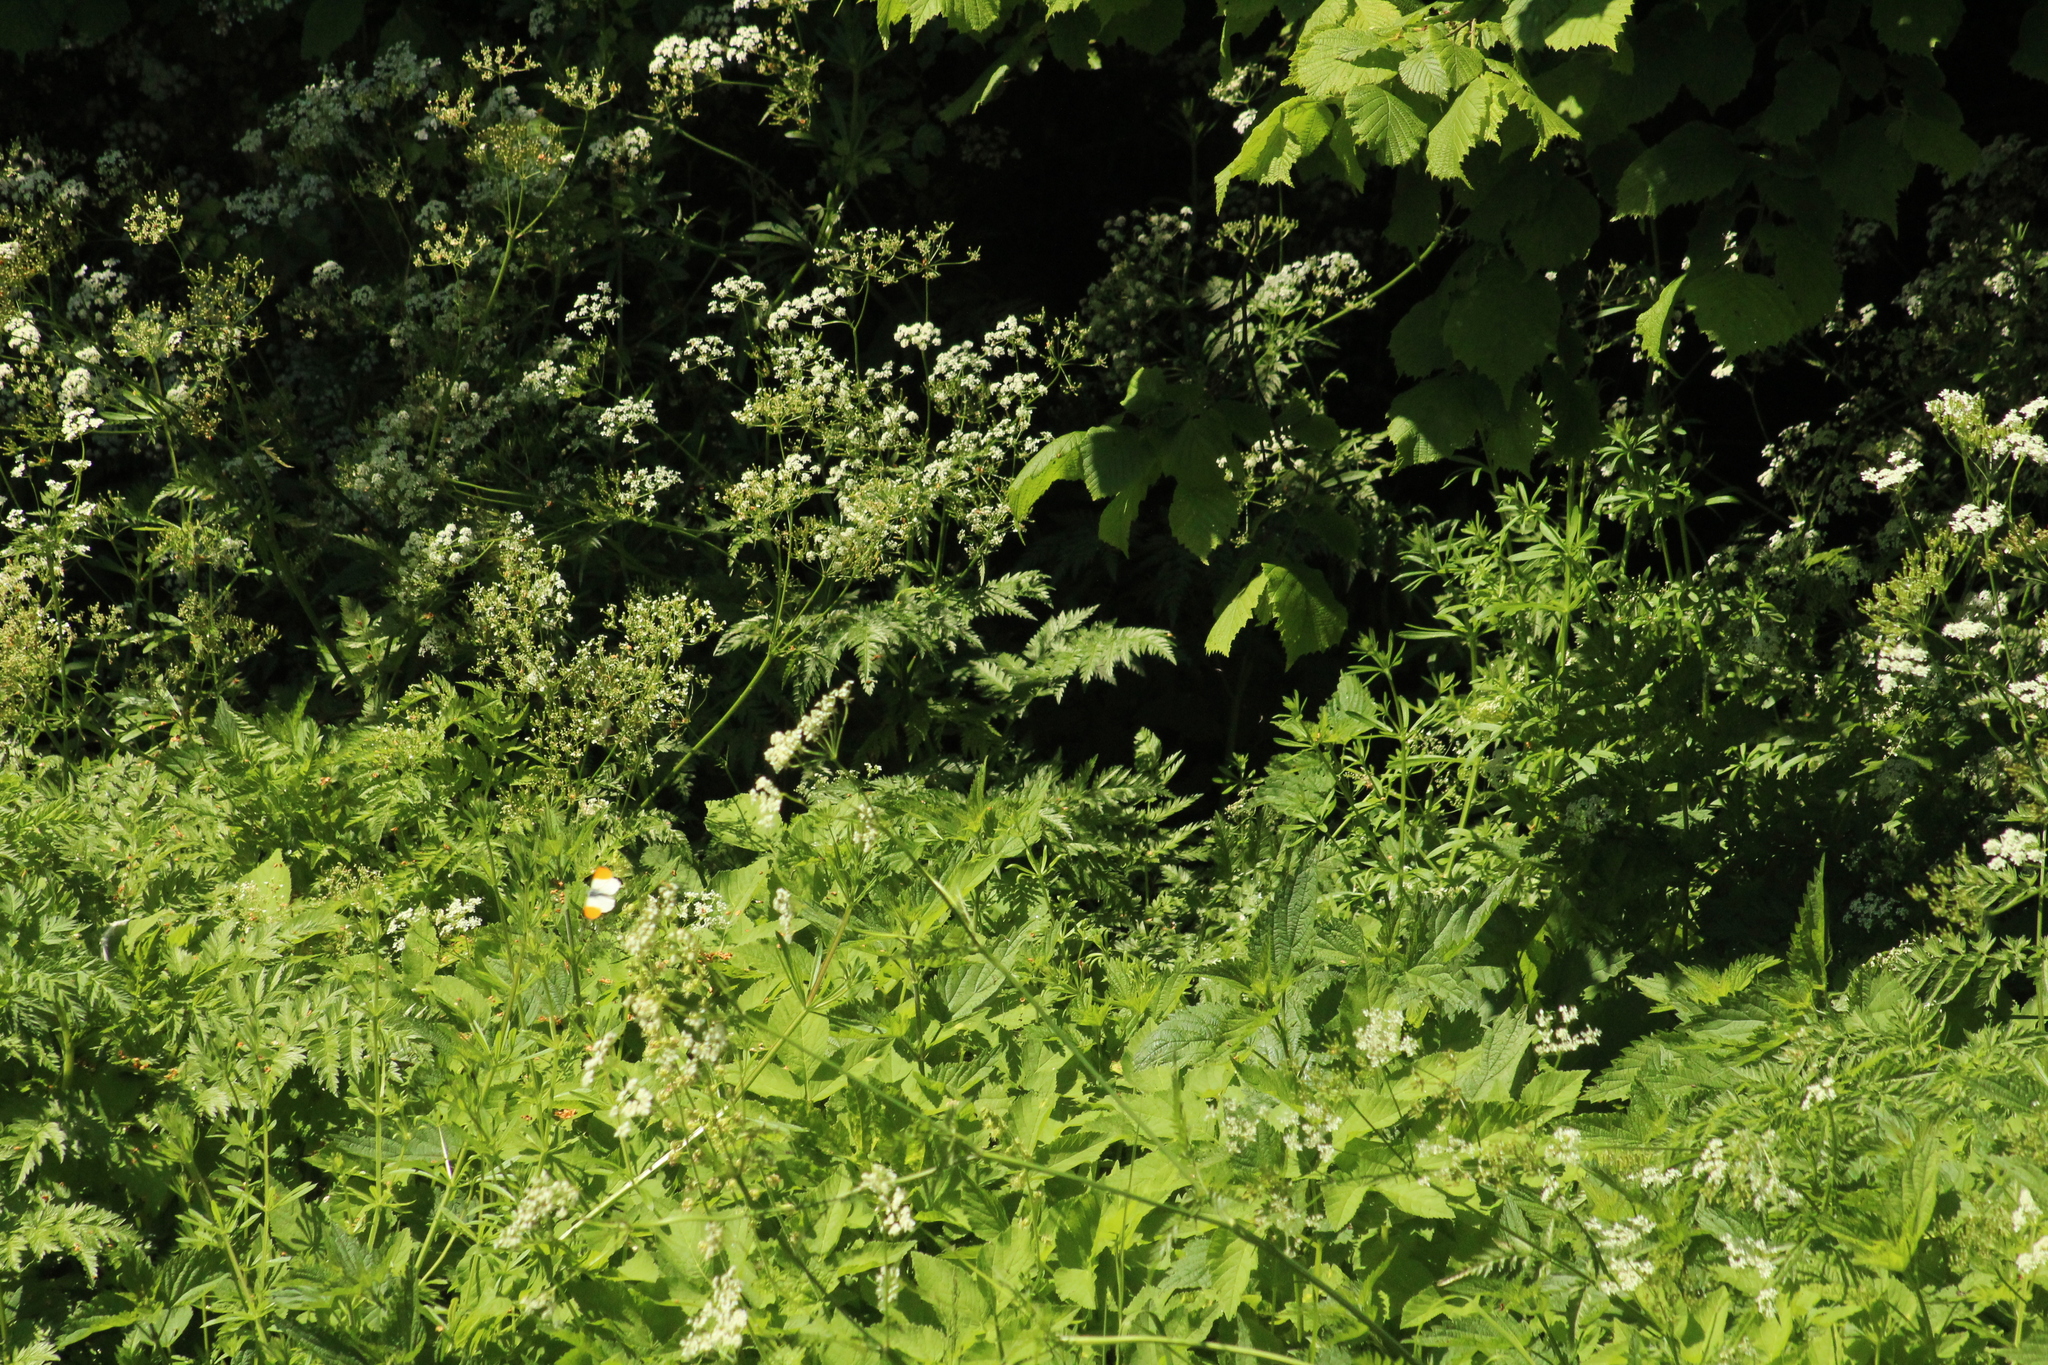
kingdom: Animalia
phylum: Arthropoda
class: Insecta
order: Lepidoptera
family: Pieridae
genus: Anthocharis
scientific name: Anthocharis cardamines
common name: Orange-tip
